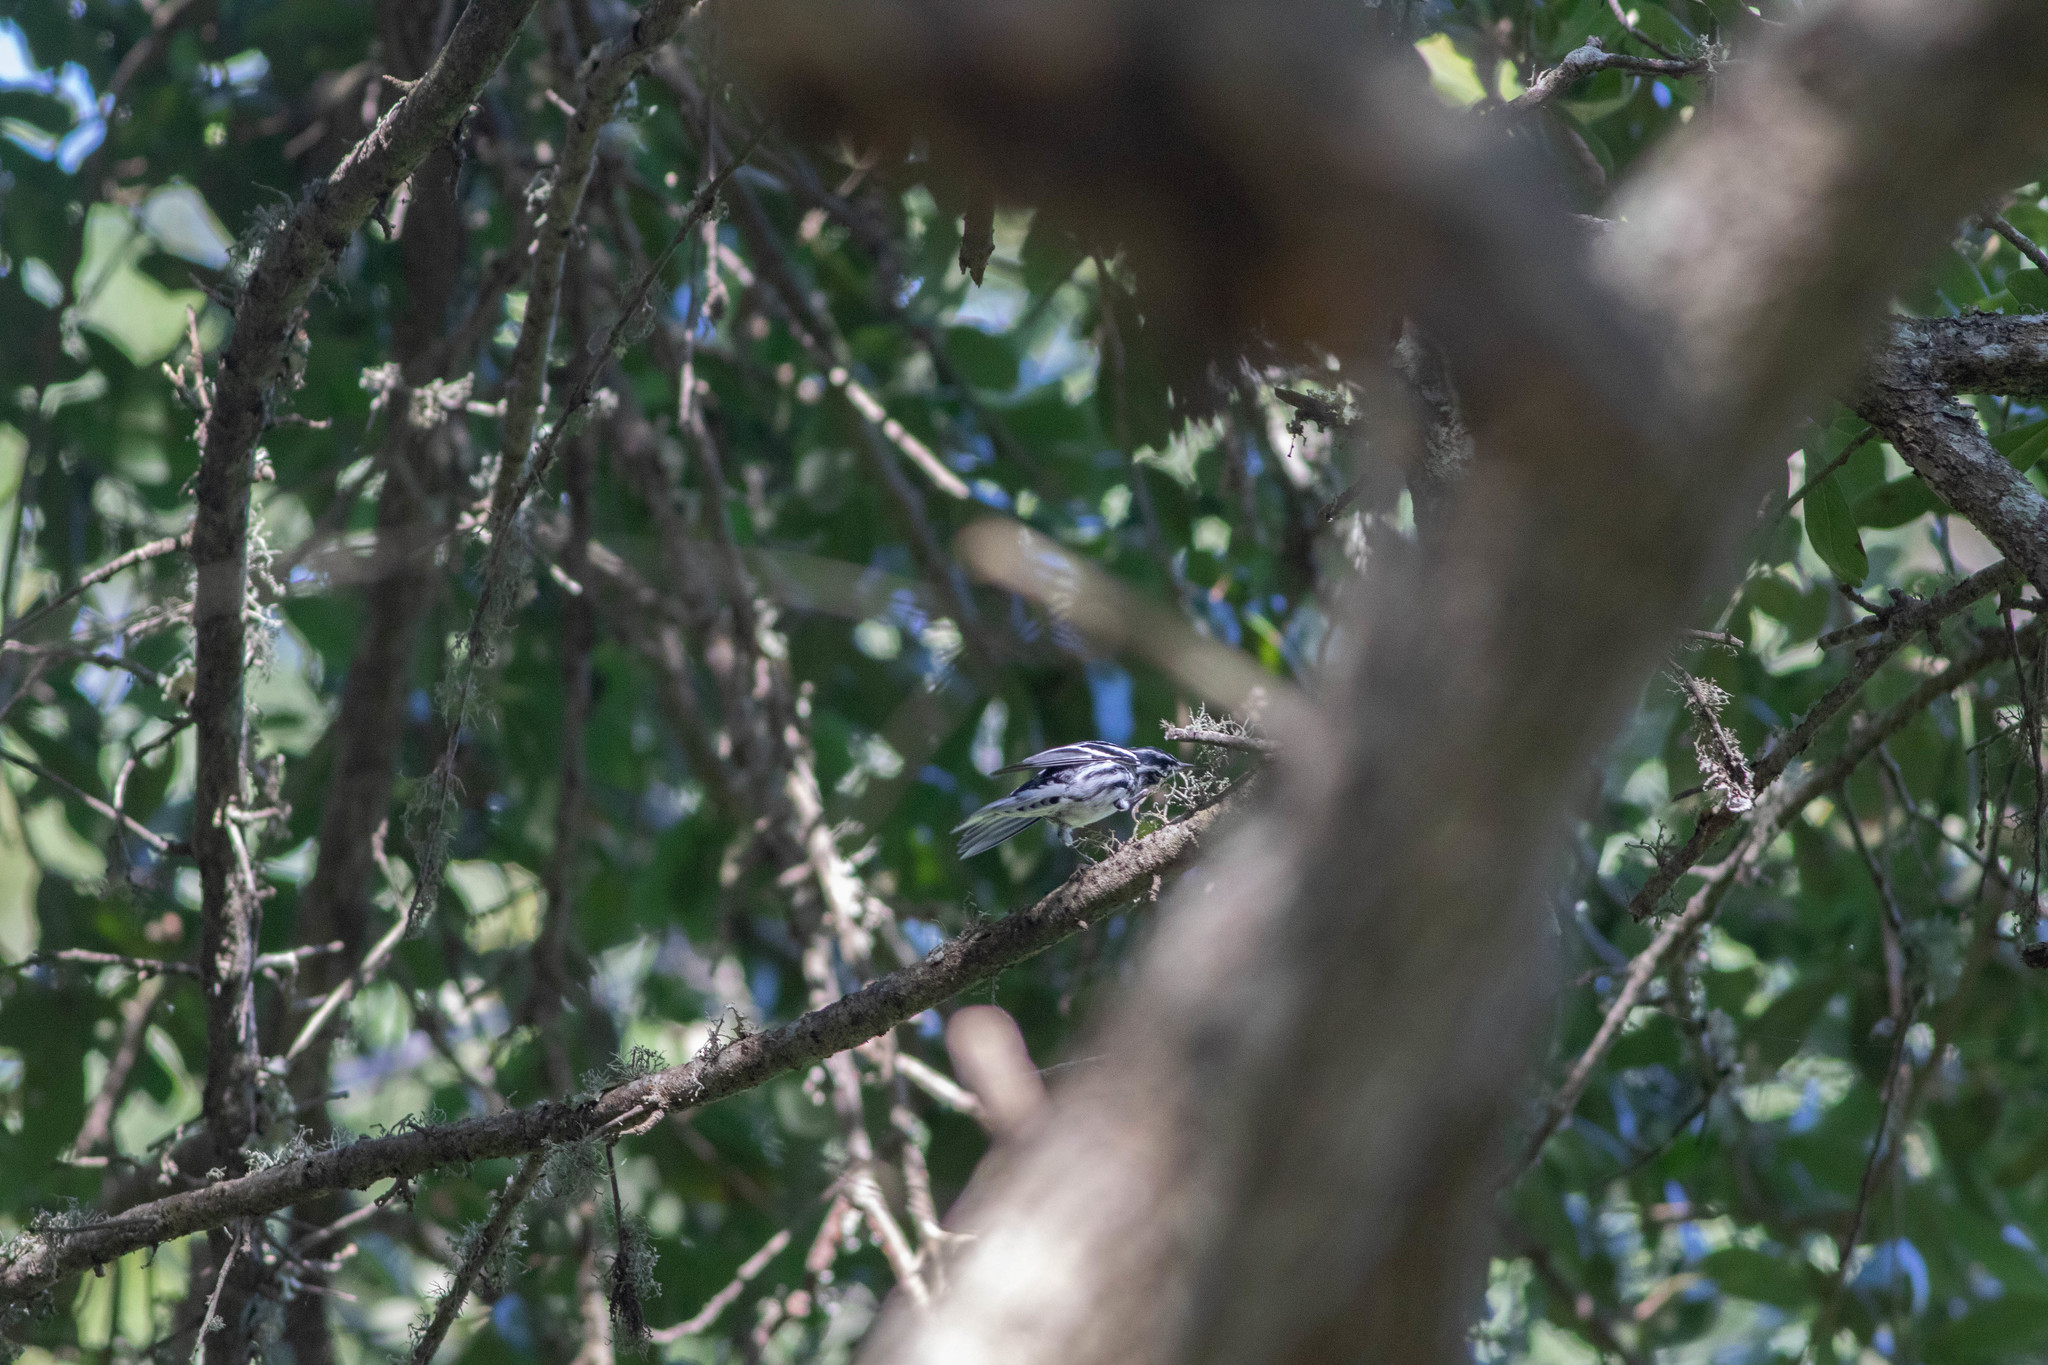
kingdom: Animalia
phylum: Chordata
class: Aves
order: Passeriformes
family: Parulidae
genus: Mniotilta
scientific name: Mniotilta varia
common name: Black-and-white warbler
